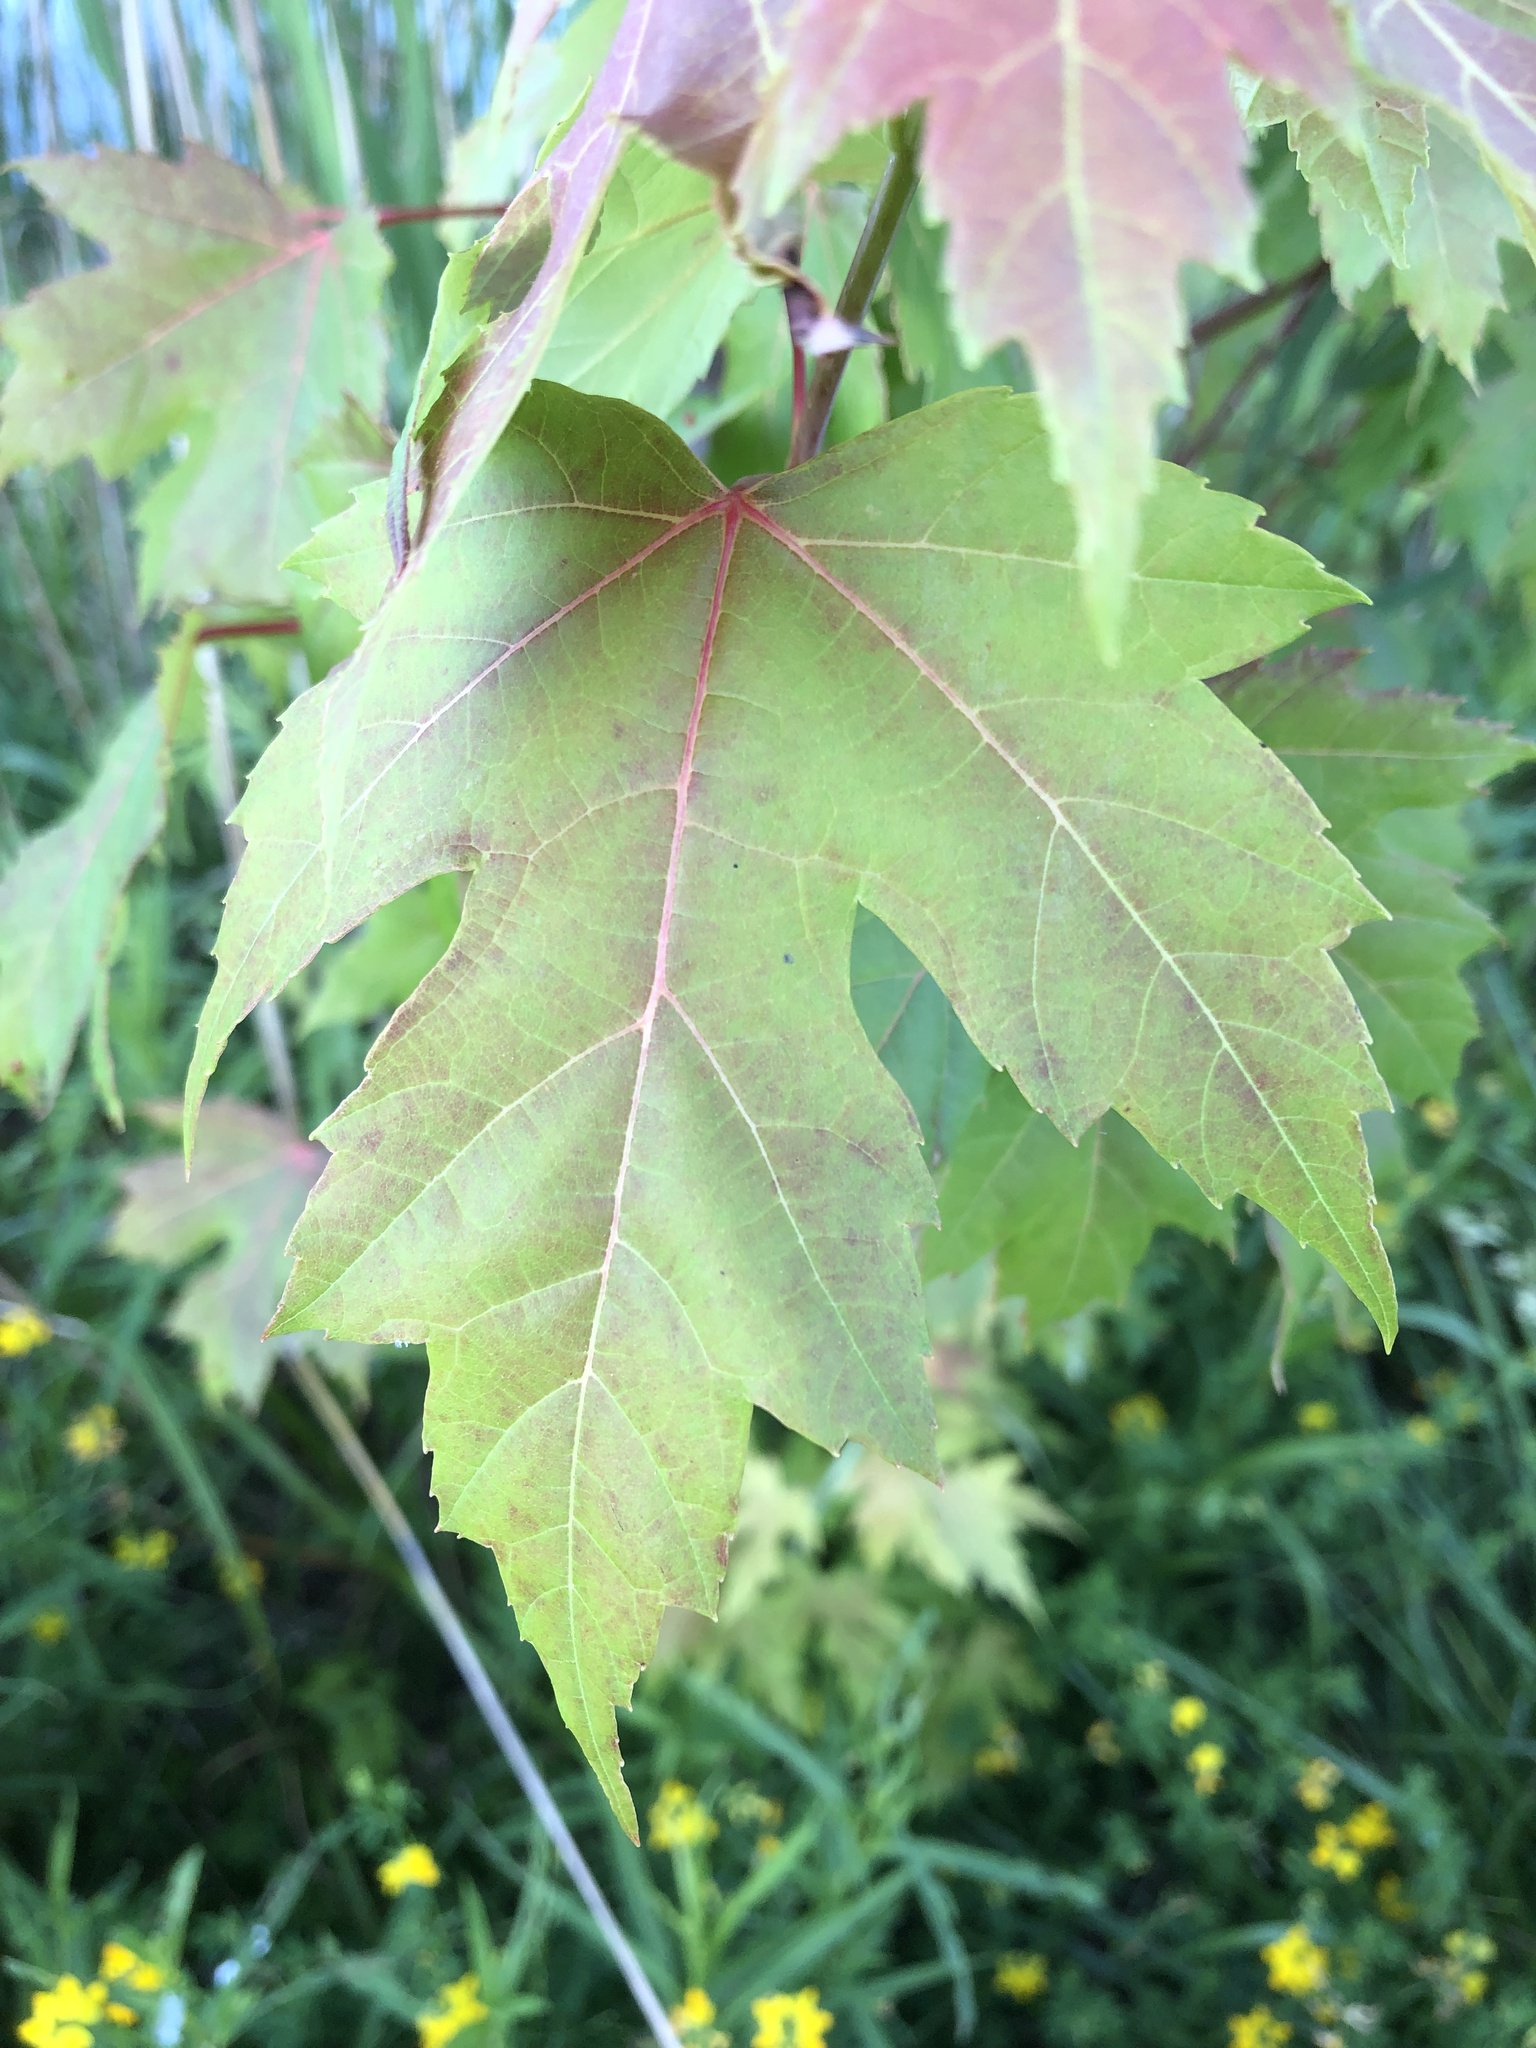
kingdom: Plantae
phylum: Tracheophyta
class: Magnoliopsida
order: Sapindales
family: Sapindaceae
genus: Acer
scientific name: Acer freemanii
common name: Freeman maple
